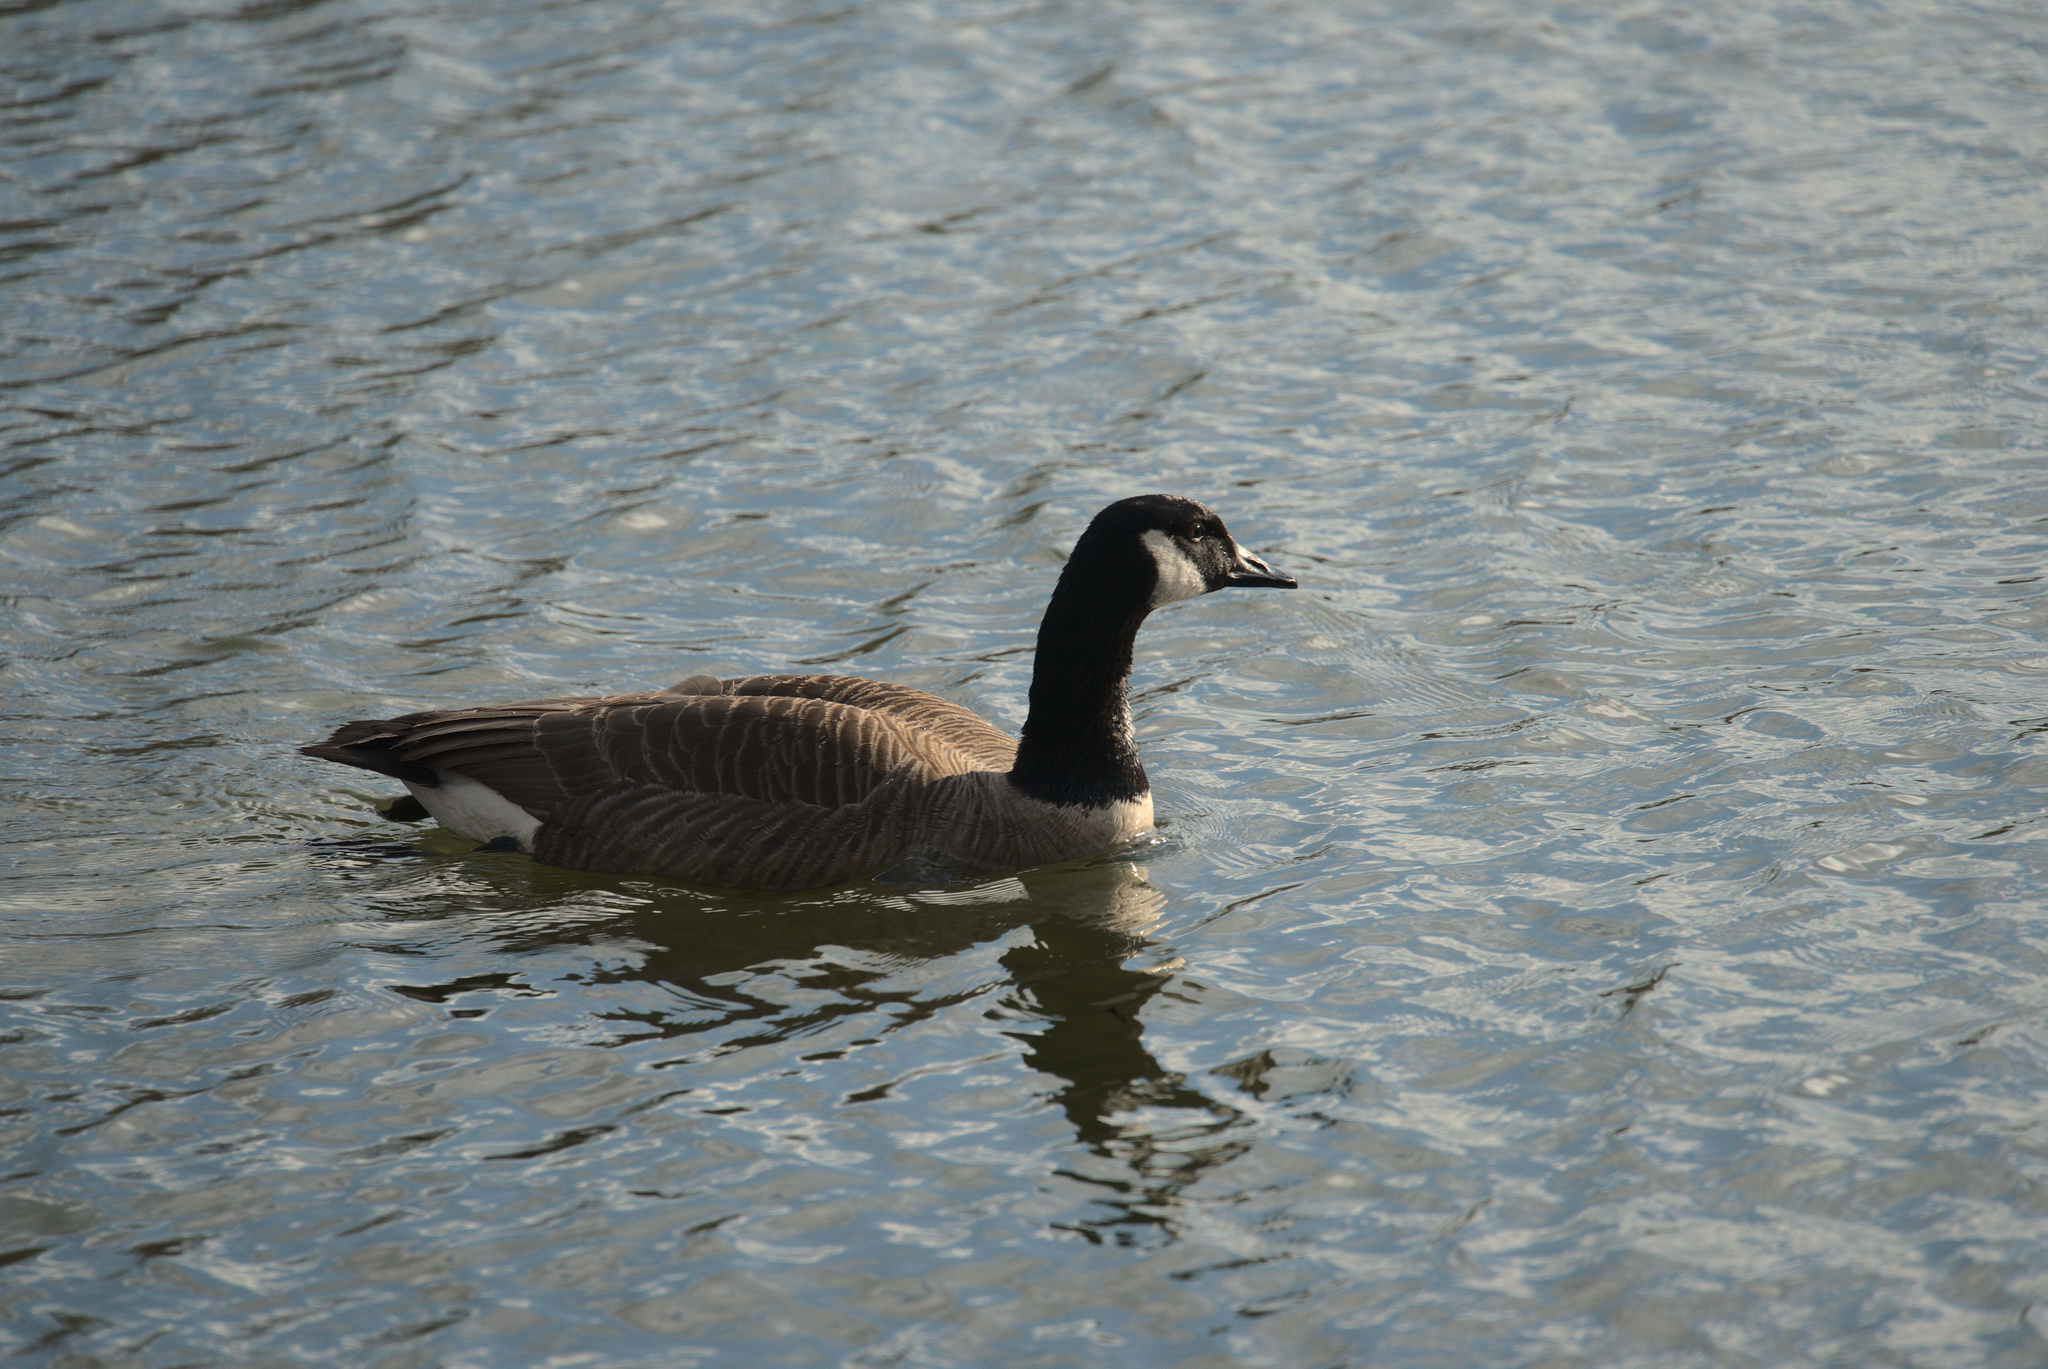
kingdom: Animalia
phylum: Chordata
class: Aves
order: Anseriformes
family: Anatidae
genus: Branta
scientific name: Branta canadensis
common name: Canada goose
